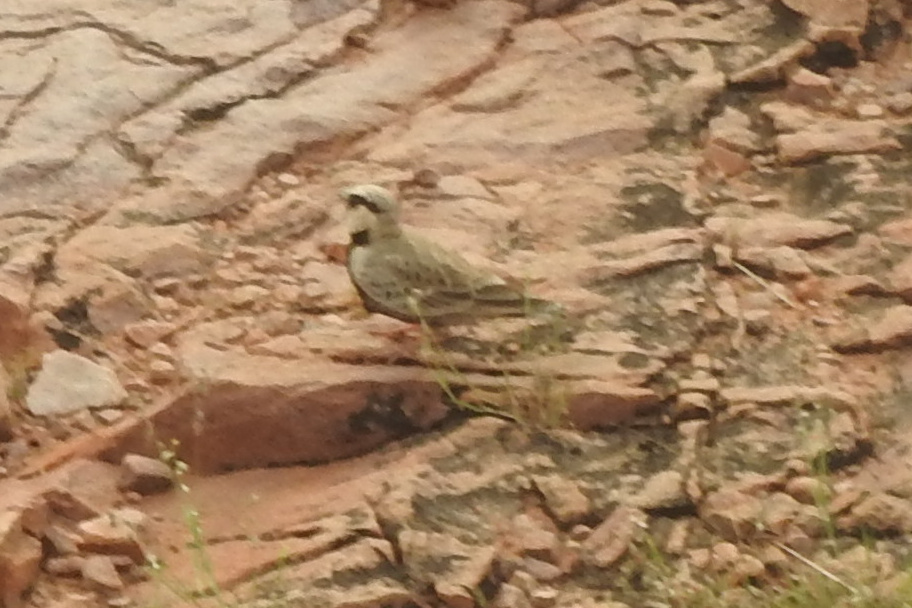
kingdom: Animalia
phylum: Chordata
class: Aves
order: Passeriformes
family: Alaudidae
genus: Eremopterix
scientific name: Eremopterix griseus
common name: Ashy-crowned sparrow-lark
